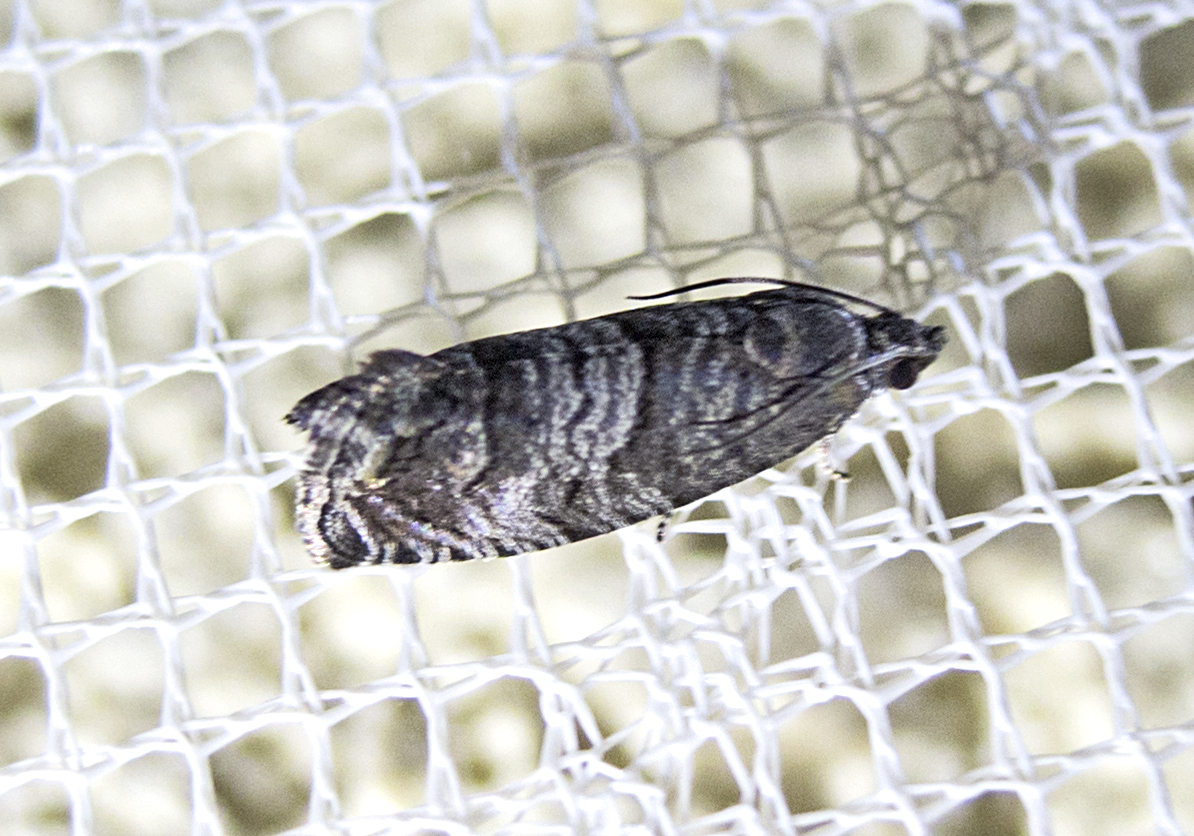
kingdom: Animalia
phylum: Arthropoda
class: Insecta
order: Lepidoptera
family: Tortricidae
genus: Cydia
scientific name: Cydia pomonella
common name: Codling moth
